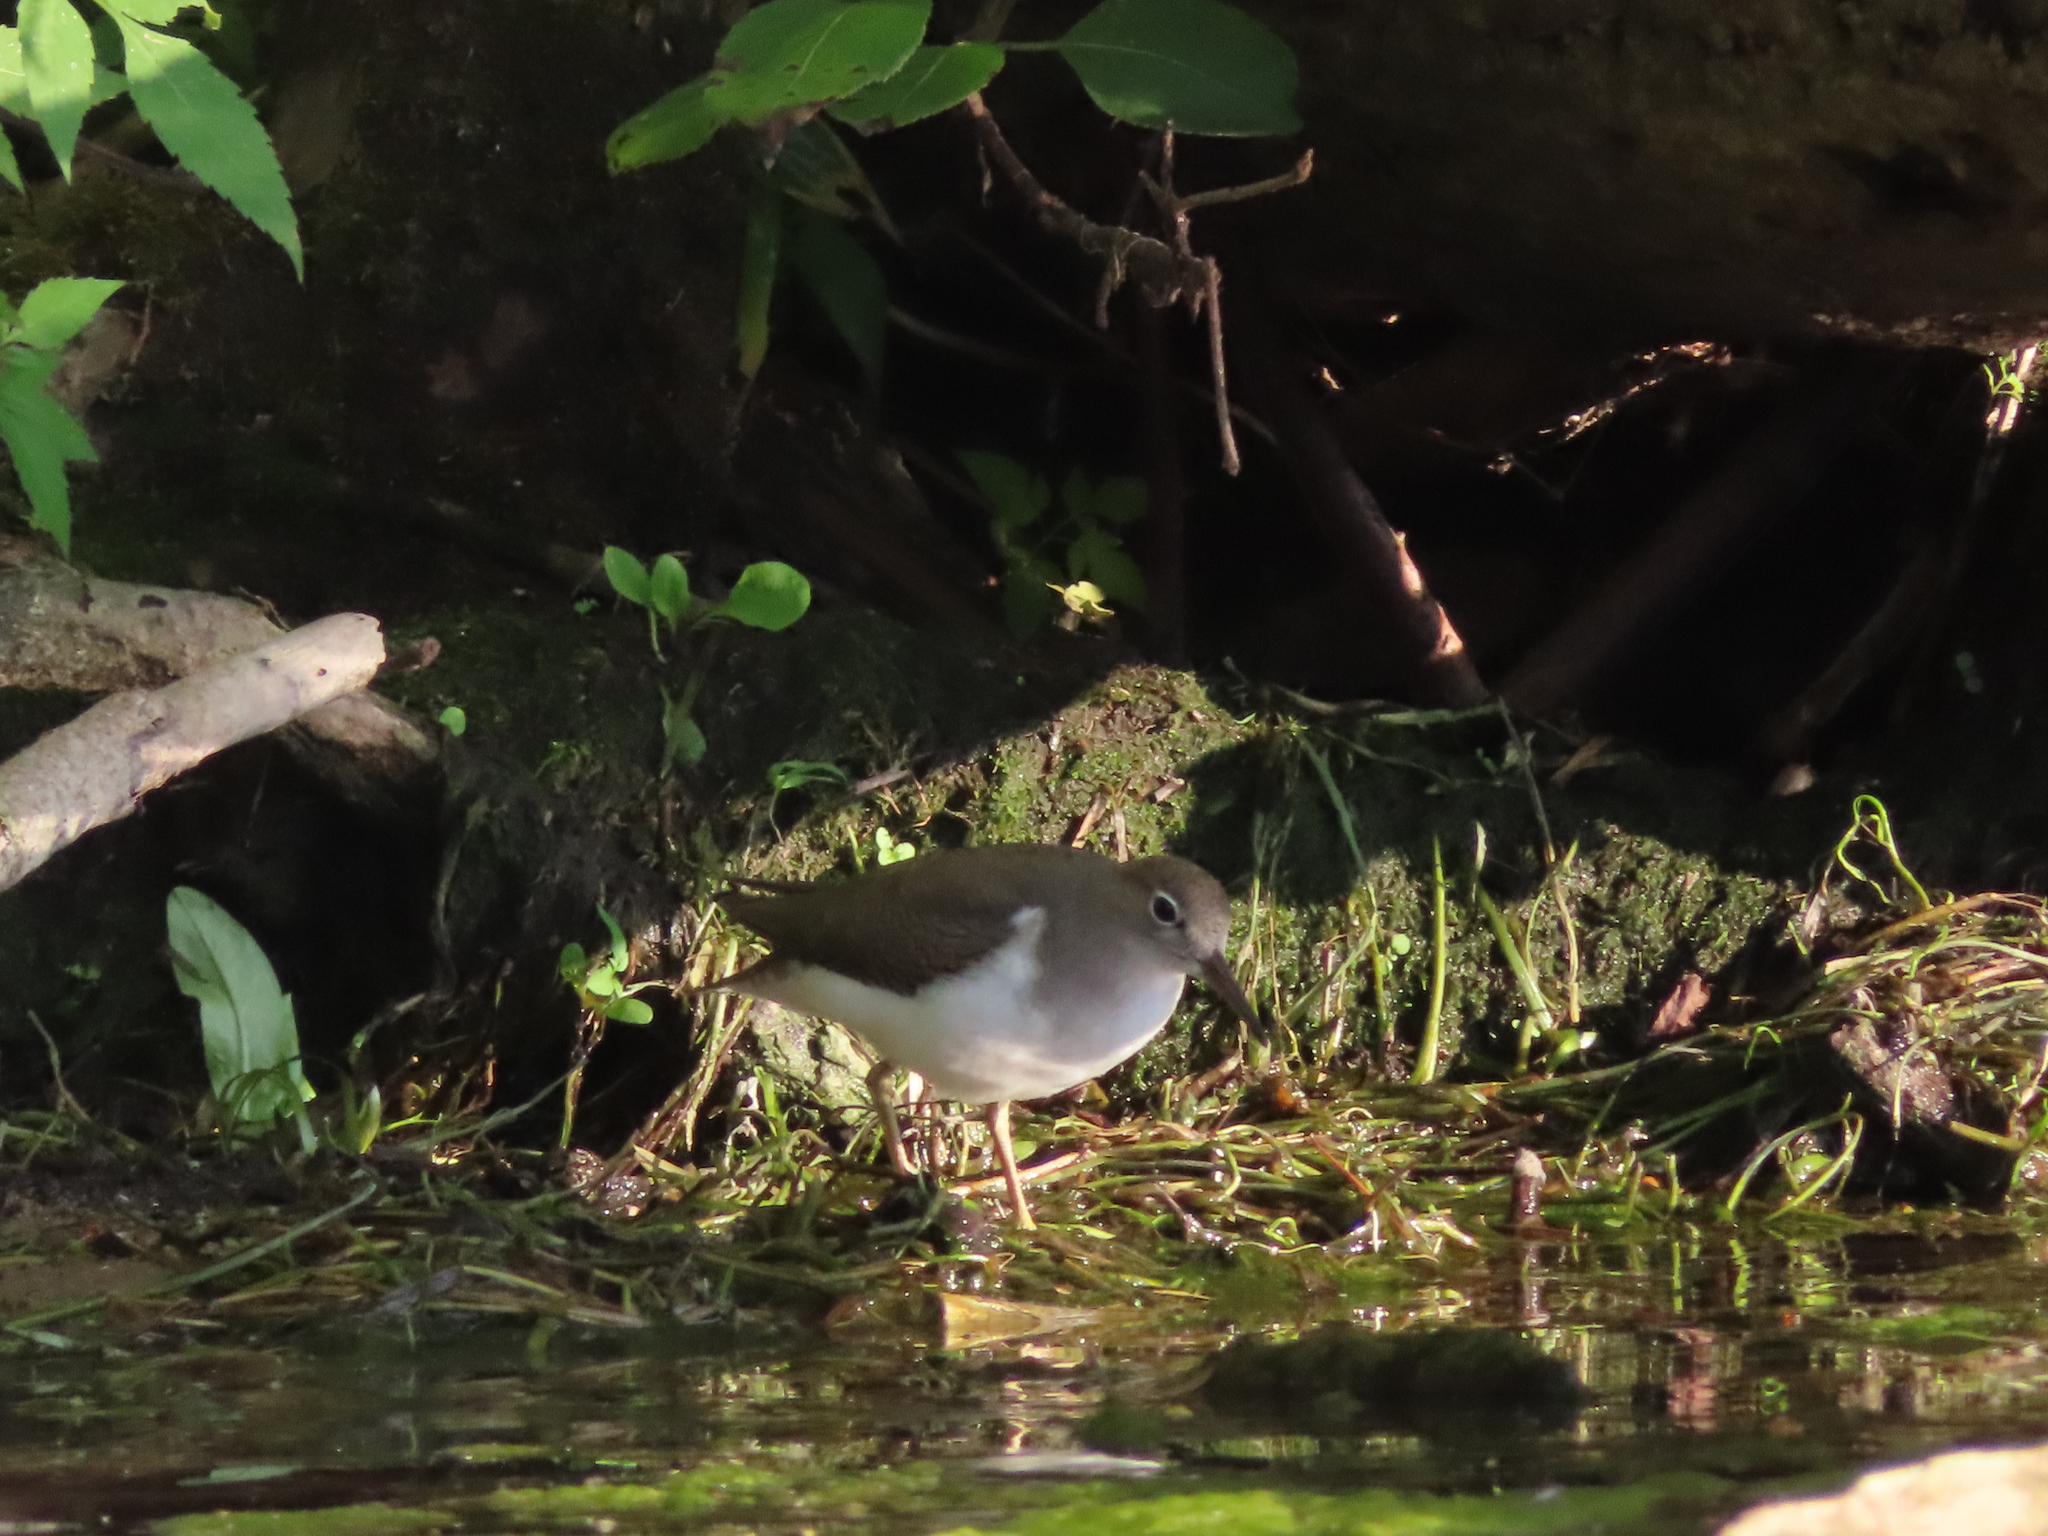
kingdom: Animalia
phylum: Chordata
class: Aves
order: Charadriiformes
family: Scolopacidae
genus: Actitis
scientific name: Actitis macularius
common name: Spotted sandpiper
